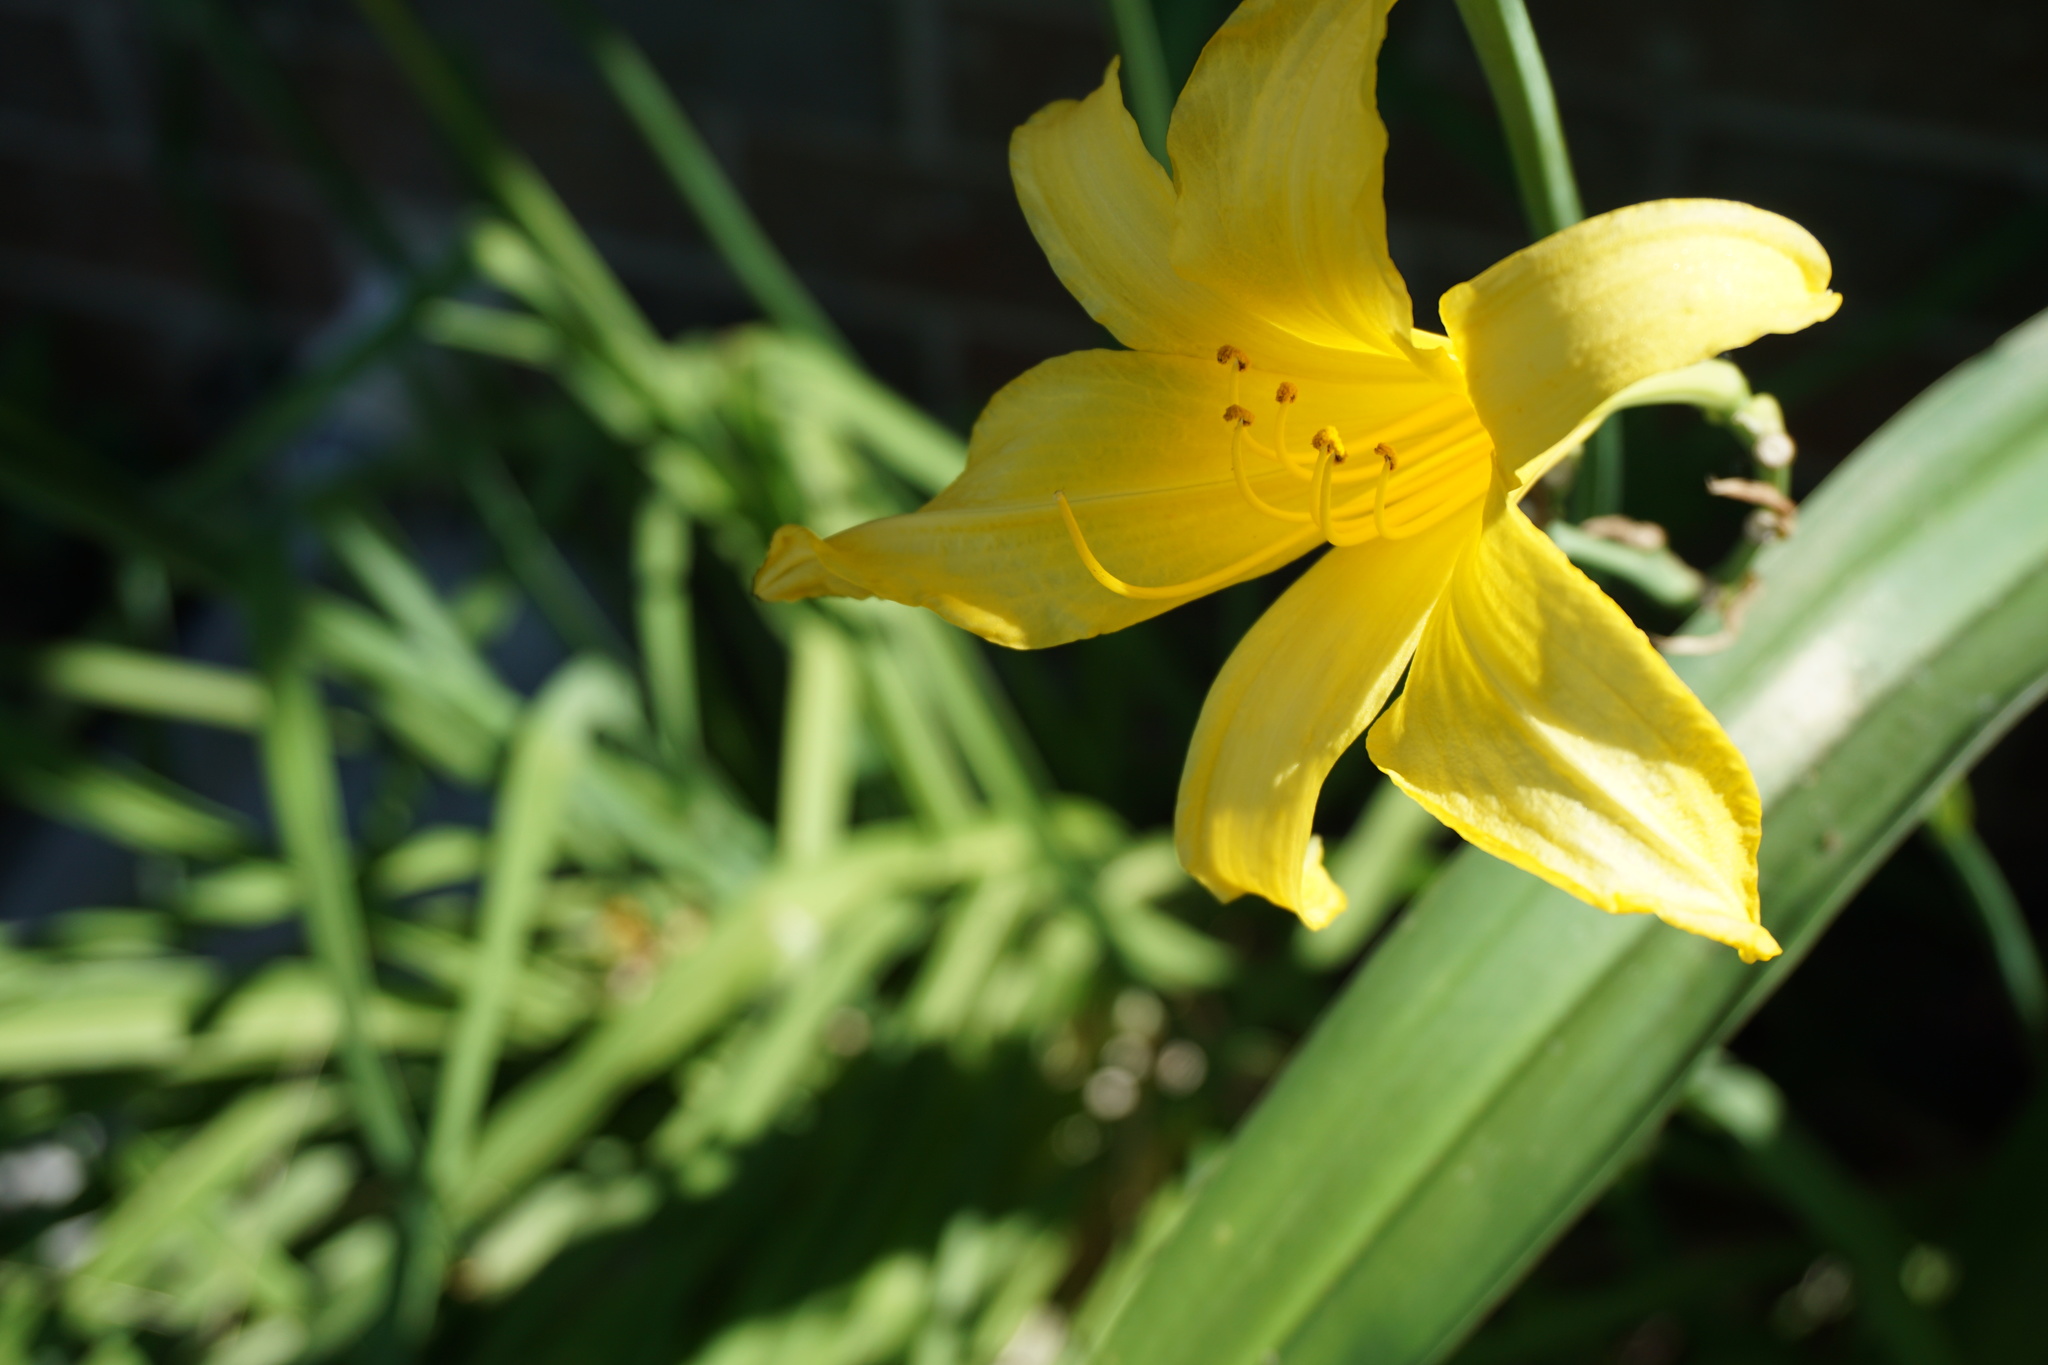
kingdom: Plantae
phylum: Tracheophyta
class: Liliopsida
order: Asparagales
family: Asphodelaceae
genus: Hemerocallis
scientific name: Hemerocallis lilioasphodelus
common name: Yellow day-lily
